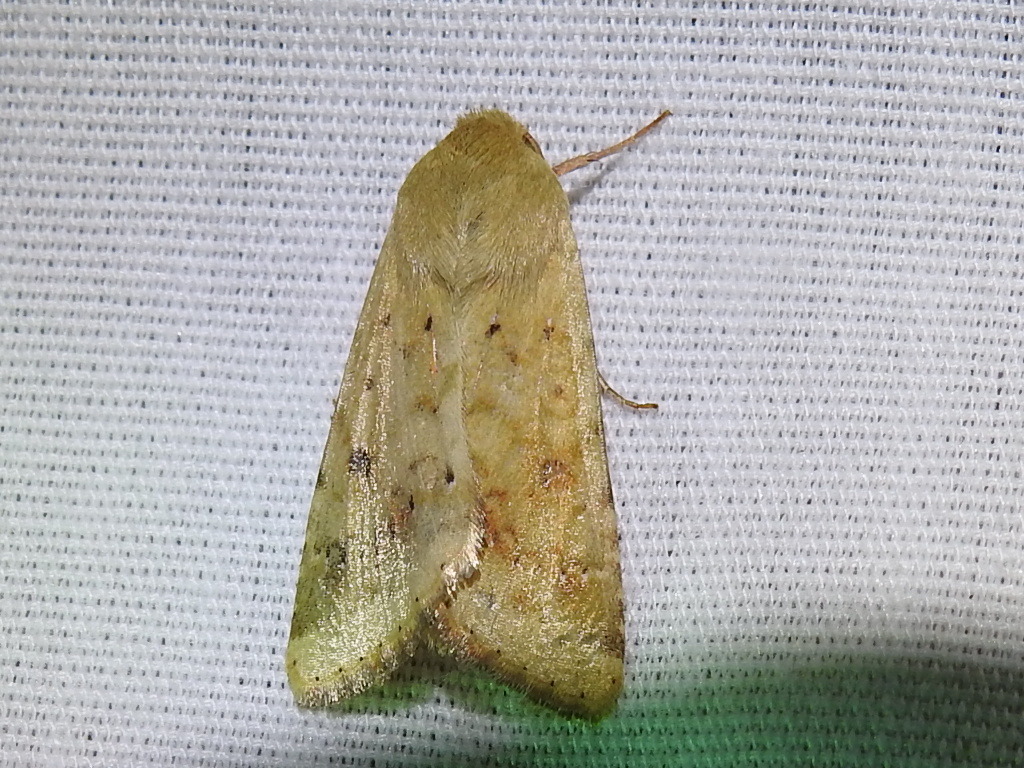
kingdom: Animalia
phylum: Arthropoda
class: Insecta
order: Lepidoptera
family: Noctuidae
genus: Helicoverpa
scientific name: Helicoverpa zea
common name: Bollworm
